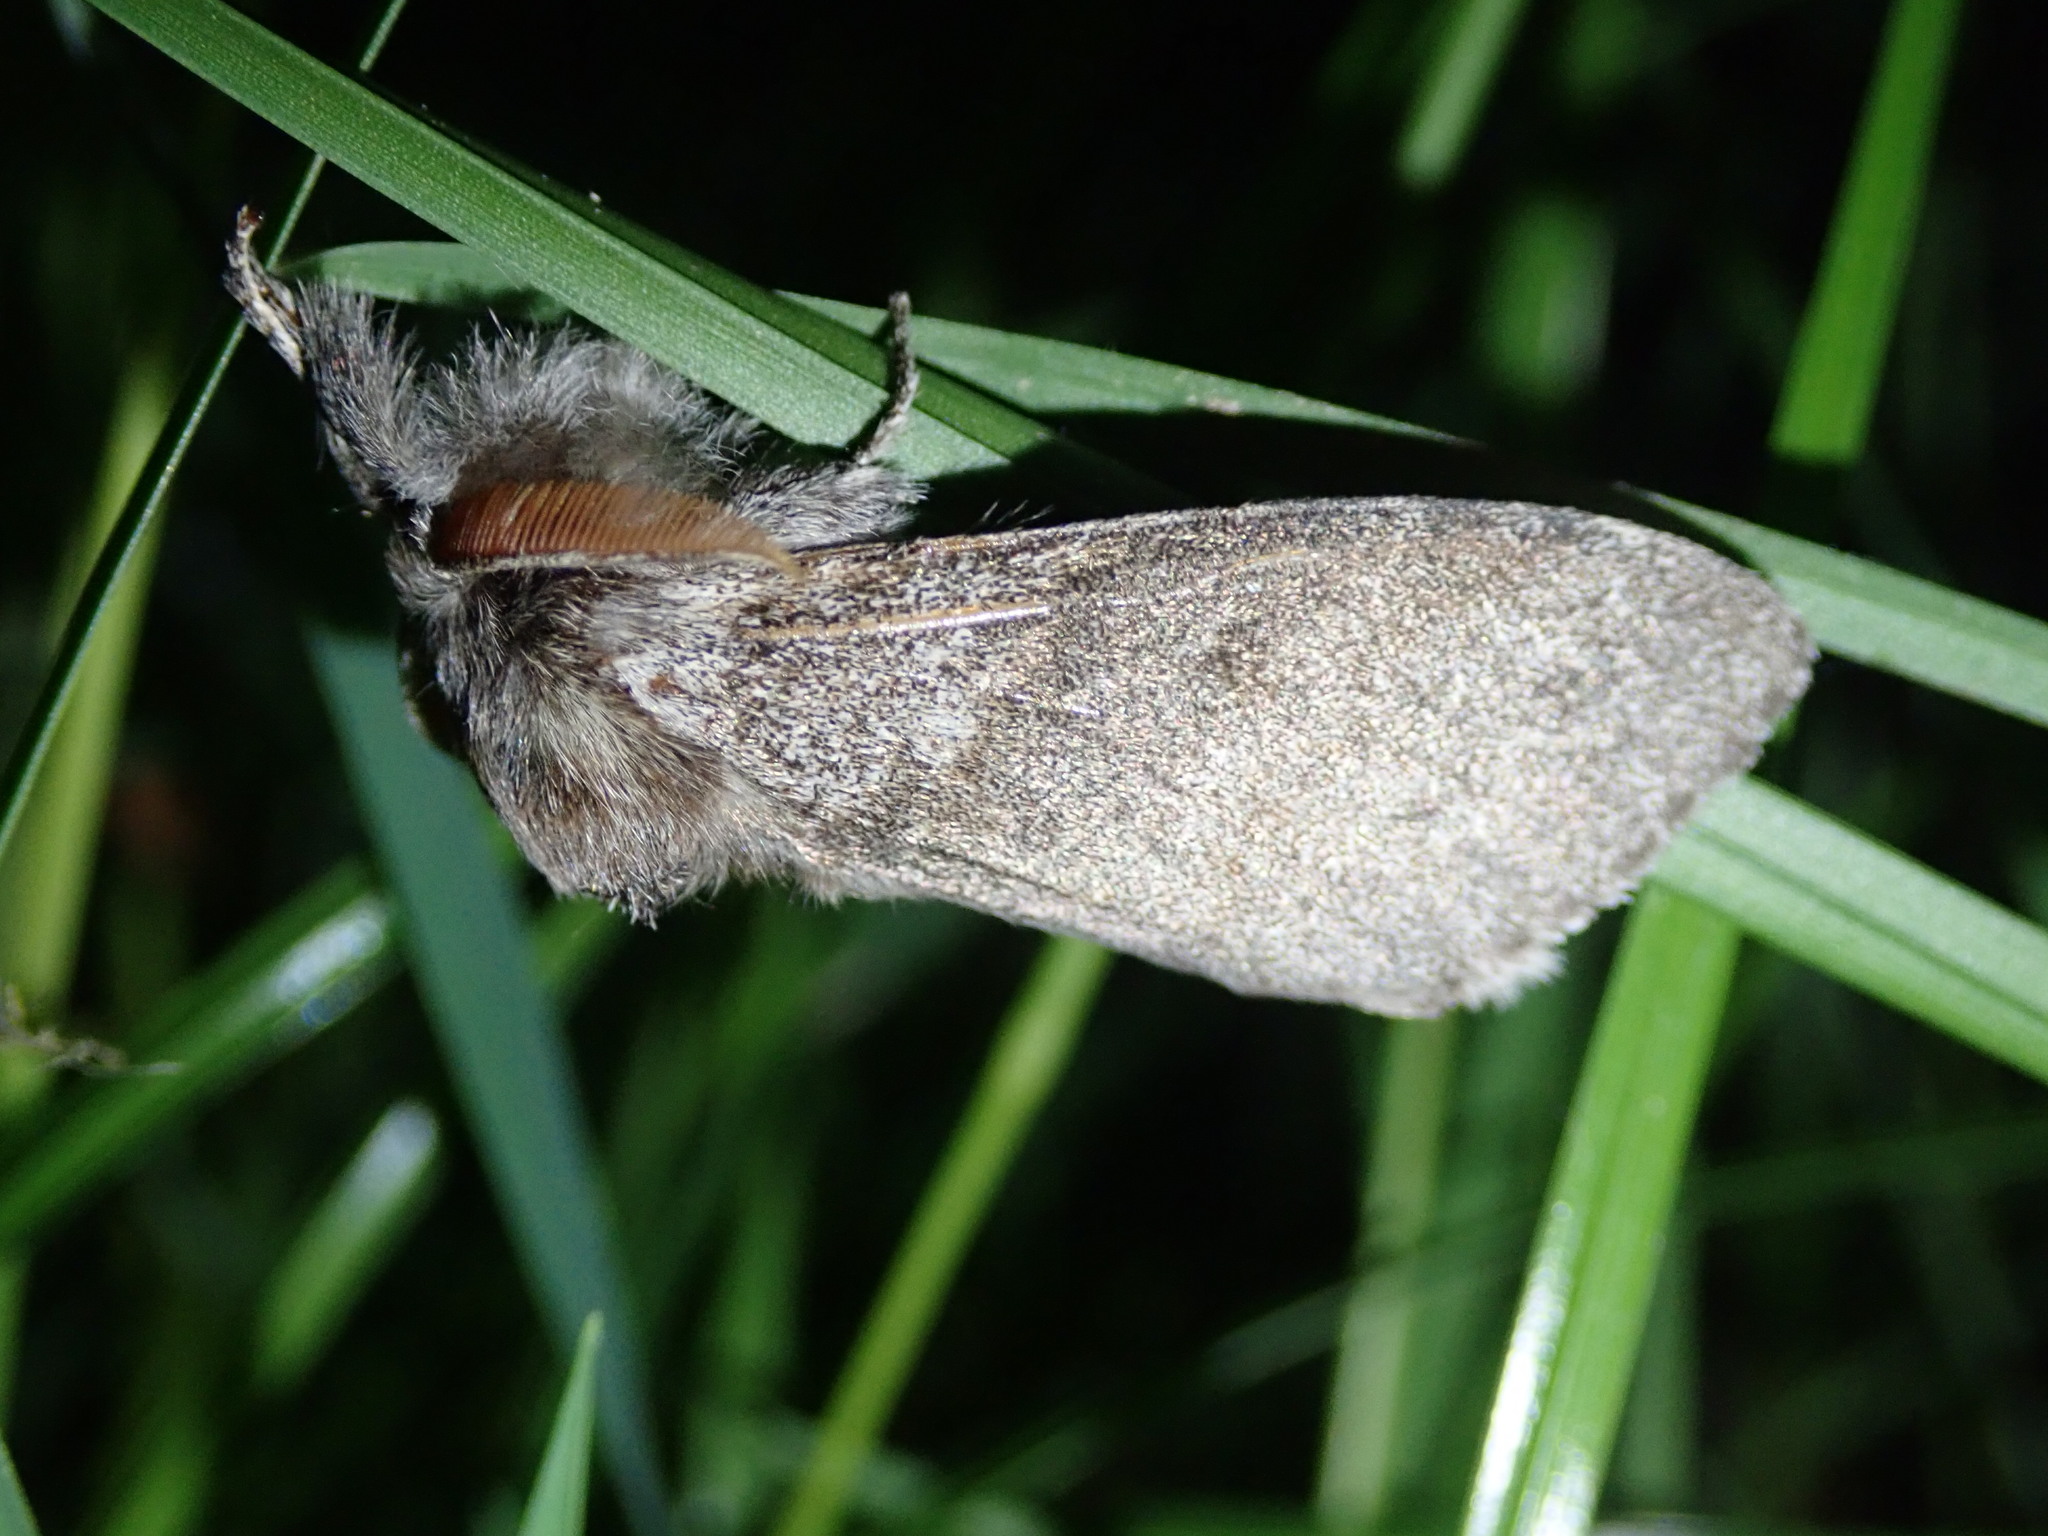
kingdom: Animalia
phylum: Arthropoda
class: Insecta
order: Lepidoptera
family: Erebidae
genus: Calliteara
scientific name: Calliteara pudibunda
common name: Pale tussock
